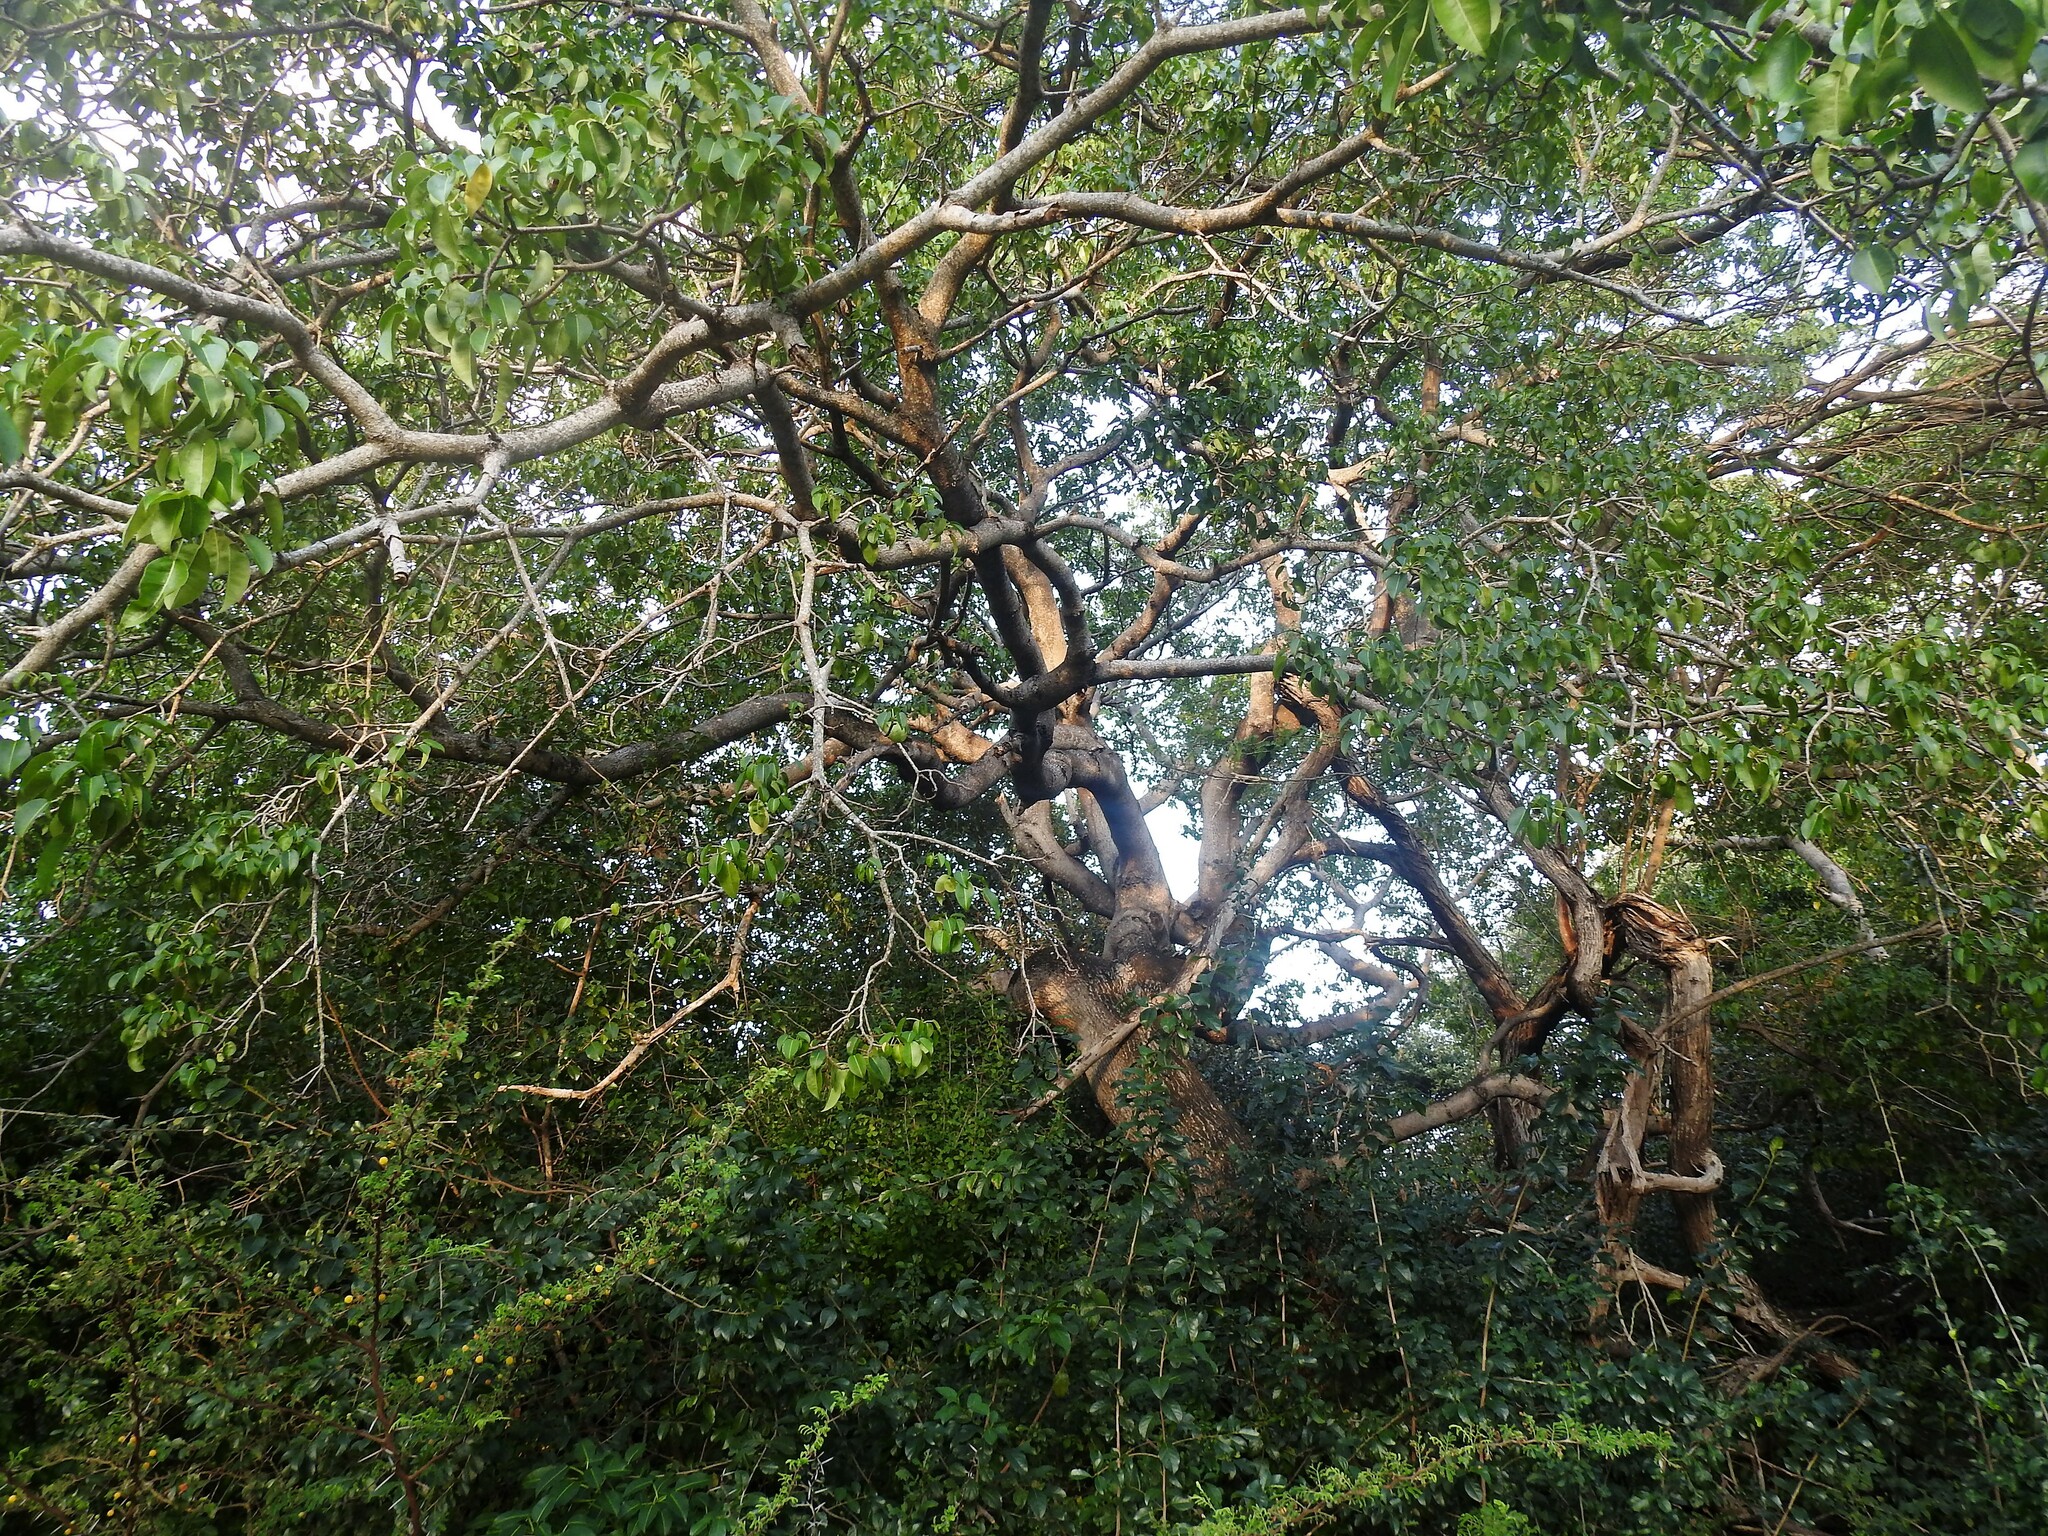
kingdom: Plantae
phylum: Tracheophyta
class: Magnoliopsida
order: Malpighiales
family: Euphorbiaceae
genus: Hippomane
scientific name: Hippomane mancinella
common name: Manchineel
